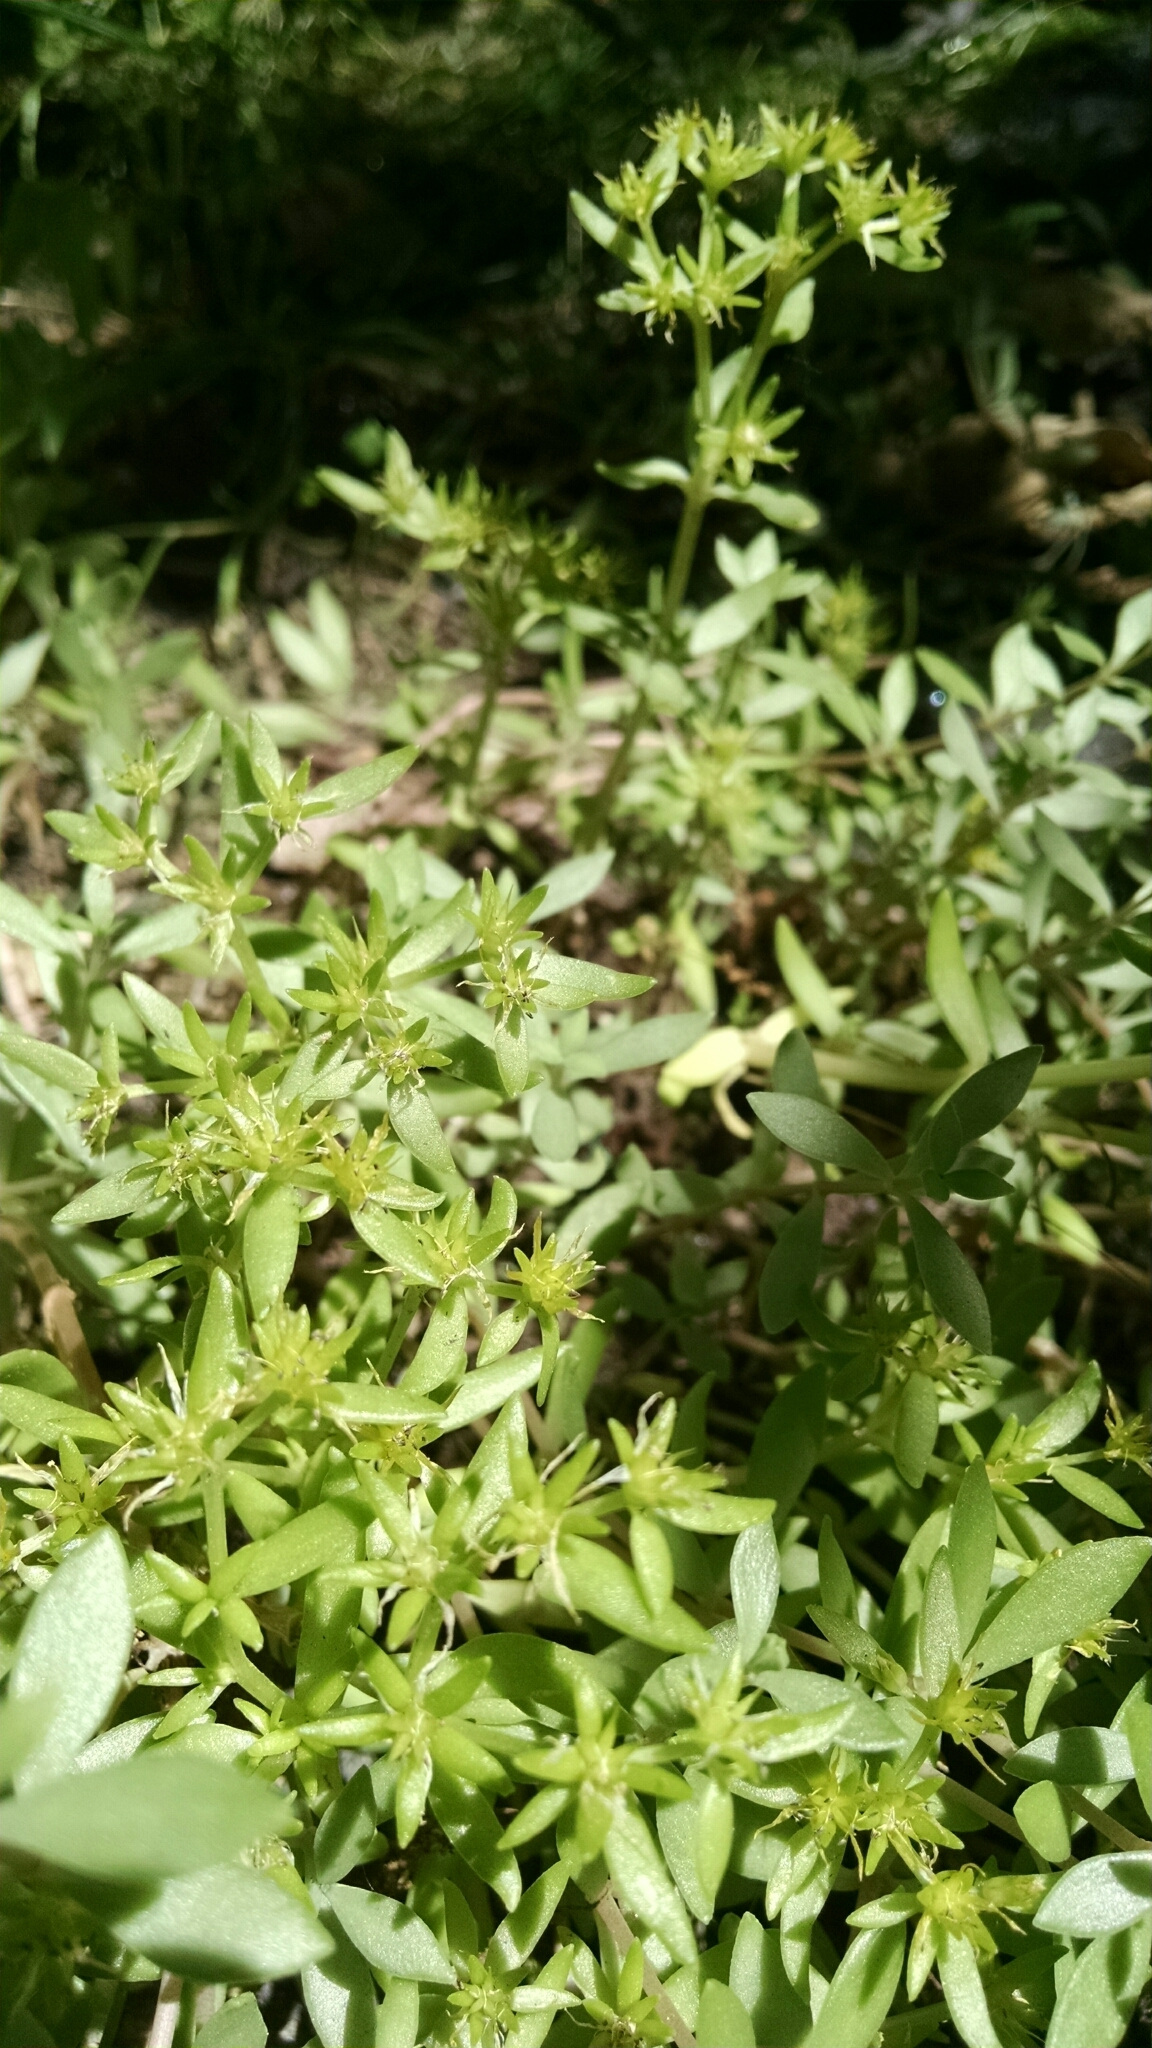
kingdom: Plantae
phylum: Tracheophyta
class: Magnoliopsida
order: Saxifragales
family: Crassulaceae
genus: Sedum
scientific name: Sedum sarmentosum
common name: Stringy stonecrop
